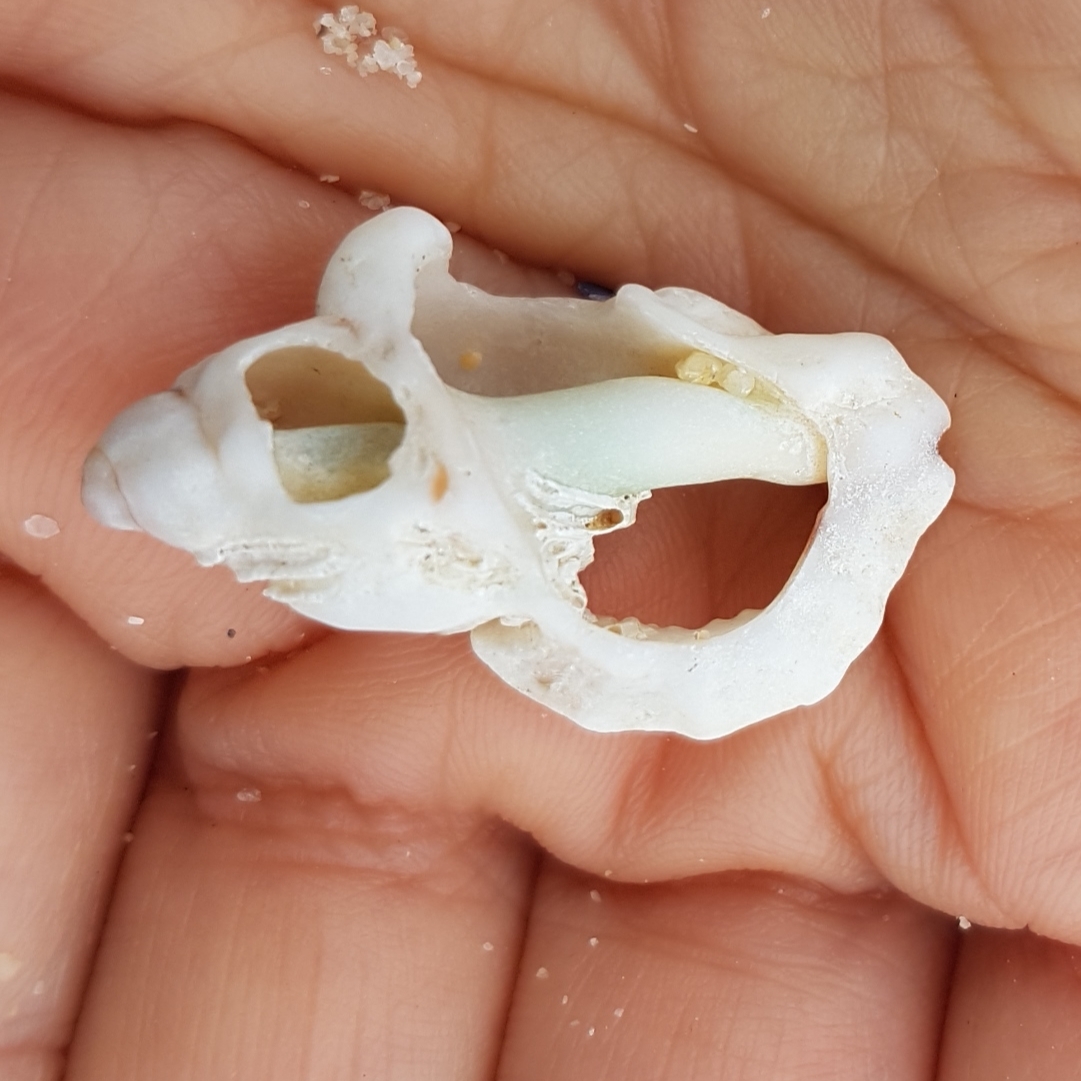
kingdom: Animalia
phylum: Mollusca
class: Gastropoda
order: Neogastropoda
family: Muricidae
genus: Ocenebra
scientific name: Ocenebra erinaceus
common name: European sting winkle
